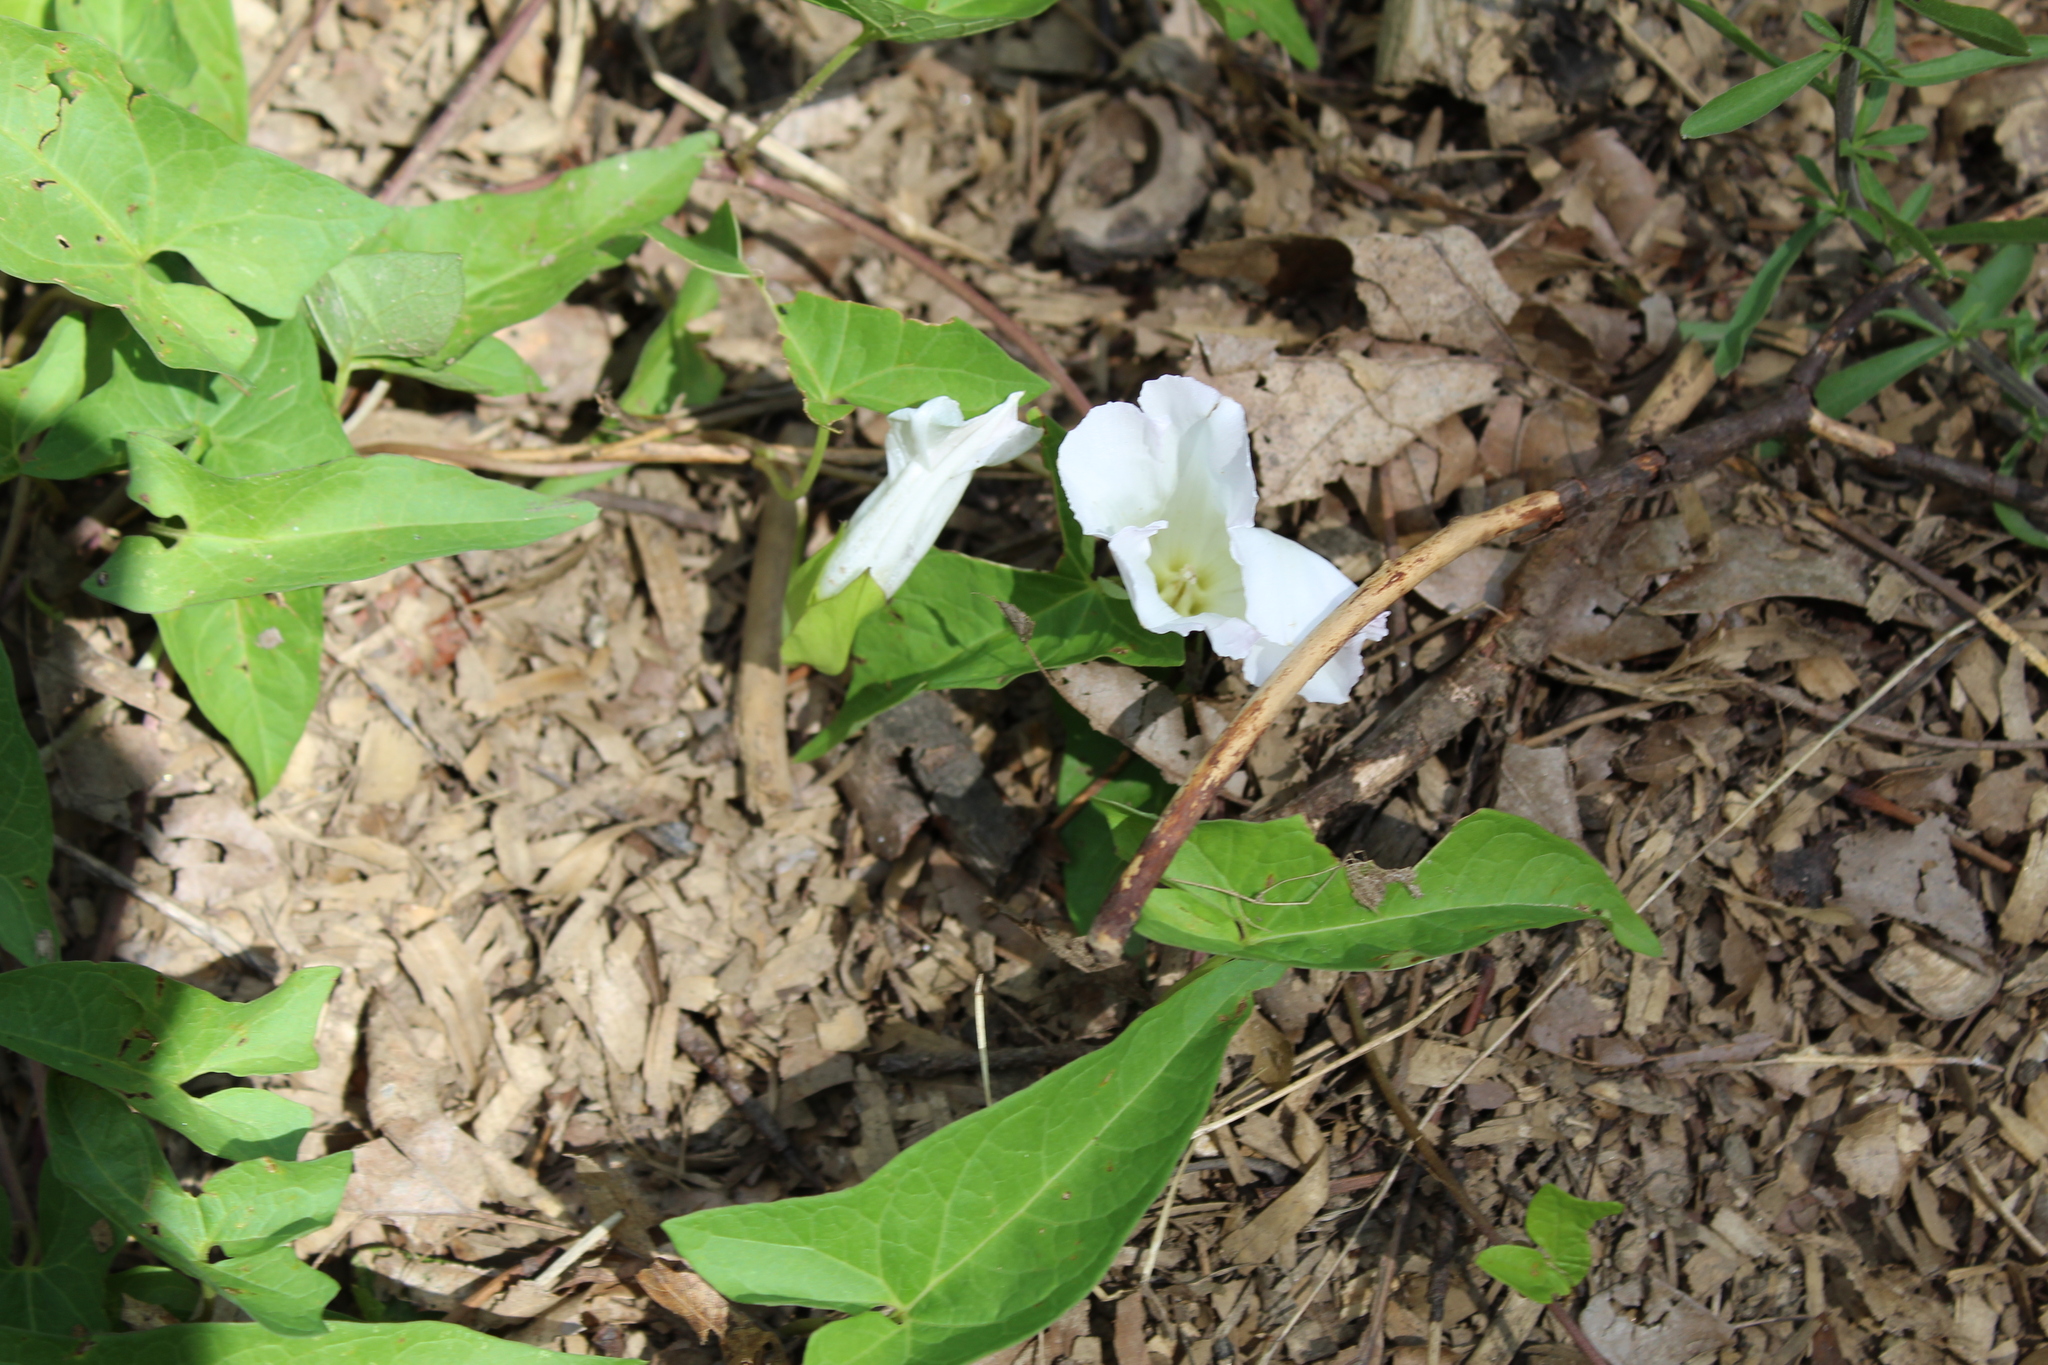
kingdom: Plantae
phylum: Tracheophyta
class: Magnoliopsida
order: Solanales
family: Convolvulaceae
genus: Calystegia
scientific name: Calystegia sepium
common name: Hedge bindweed
